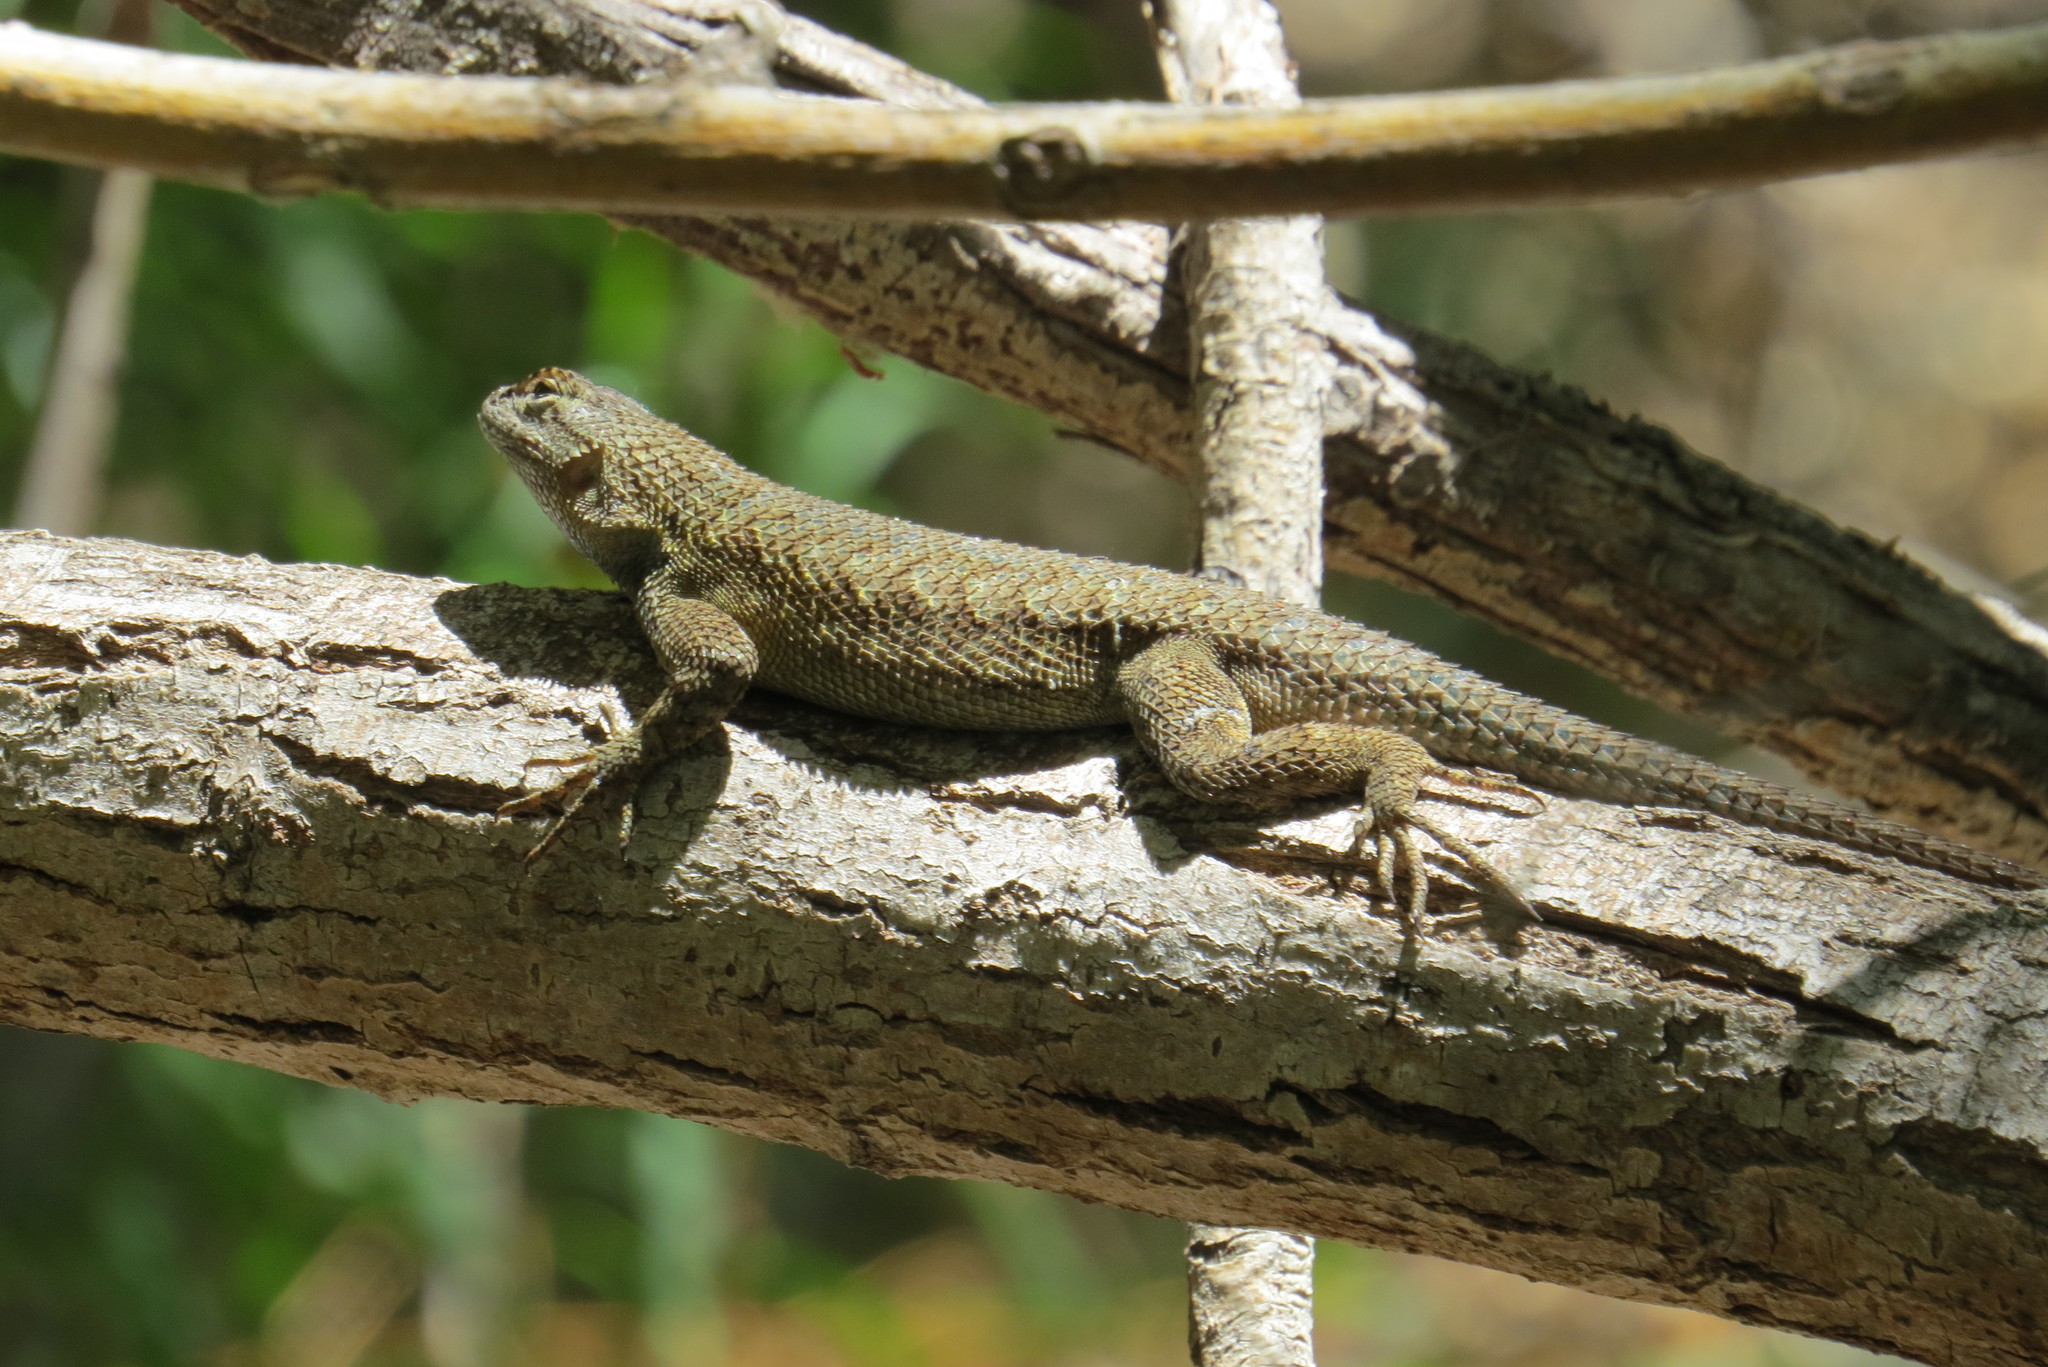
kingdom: Animalia
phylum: Chordata
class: Squamata
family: Phrynosomatidae
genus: Sceloporus
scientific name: Sceloporus occidentalis
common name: Western fence lizard
